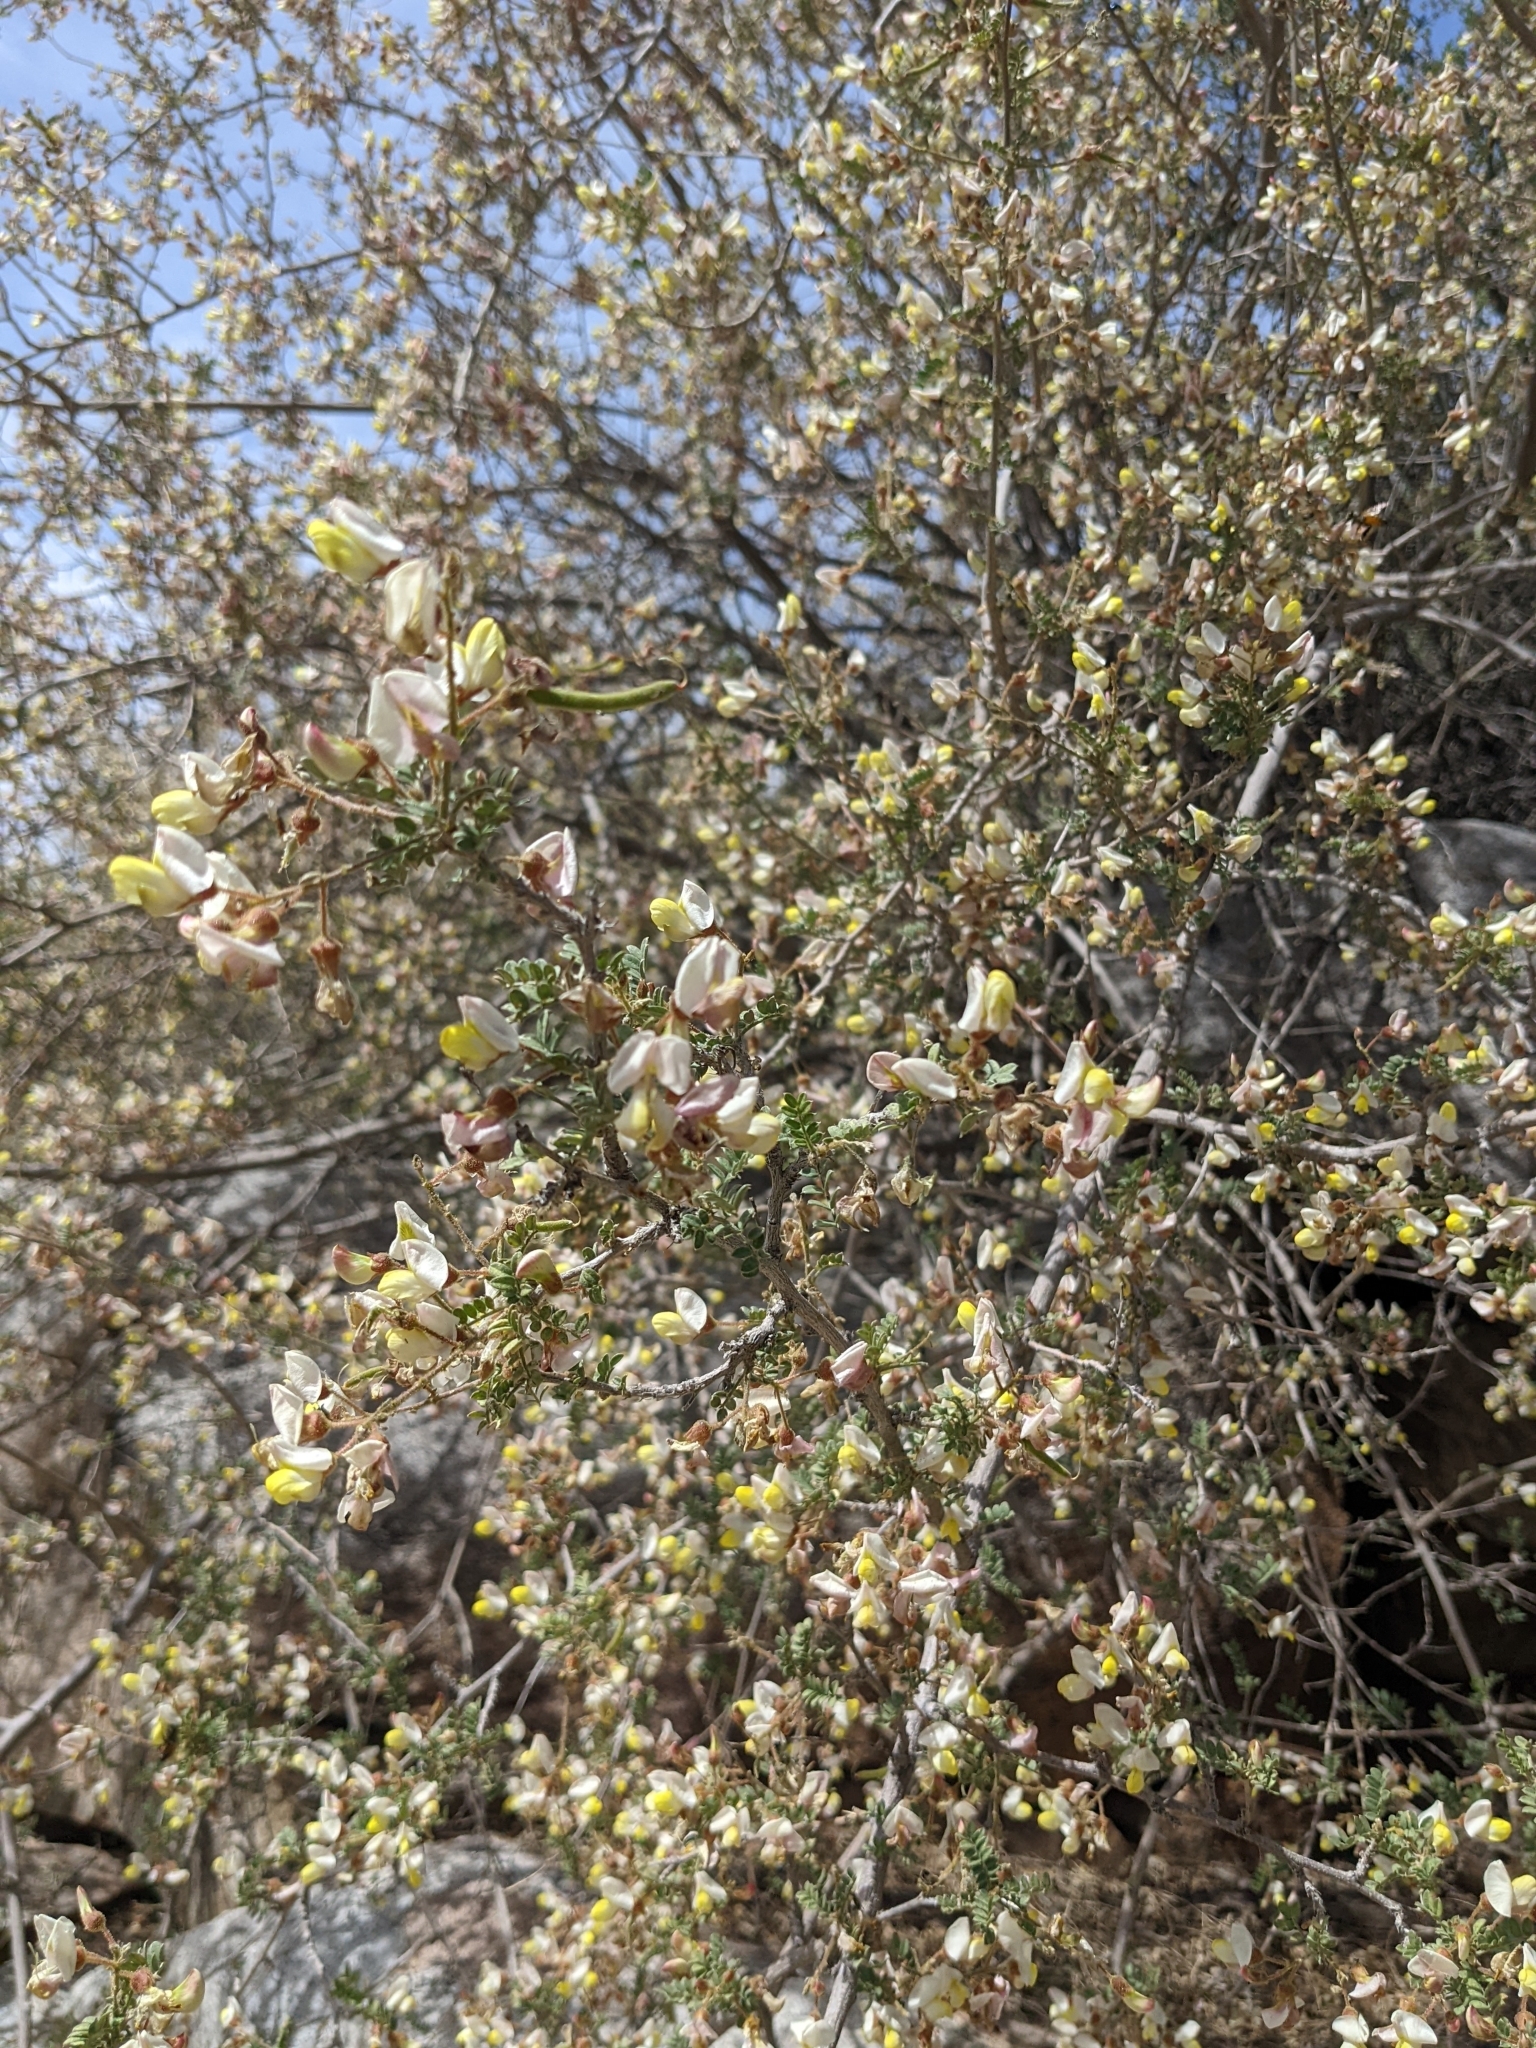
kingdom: Plantae
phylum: Tracheophyta
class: Magnoliopsida
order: Fabales
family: Fabaceae
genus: Coursetia
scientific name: Coursetia glandulosa
